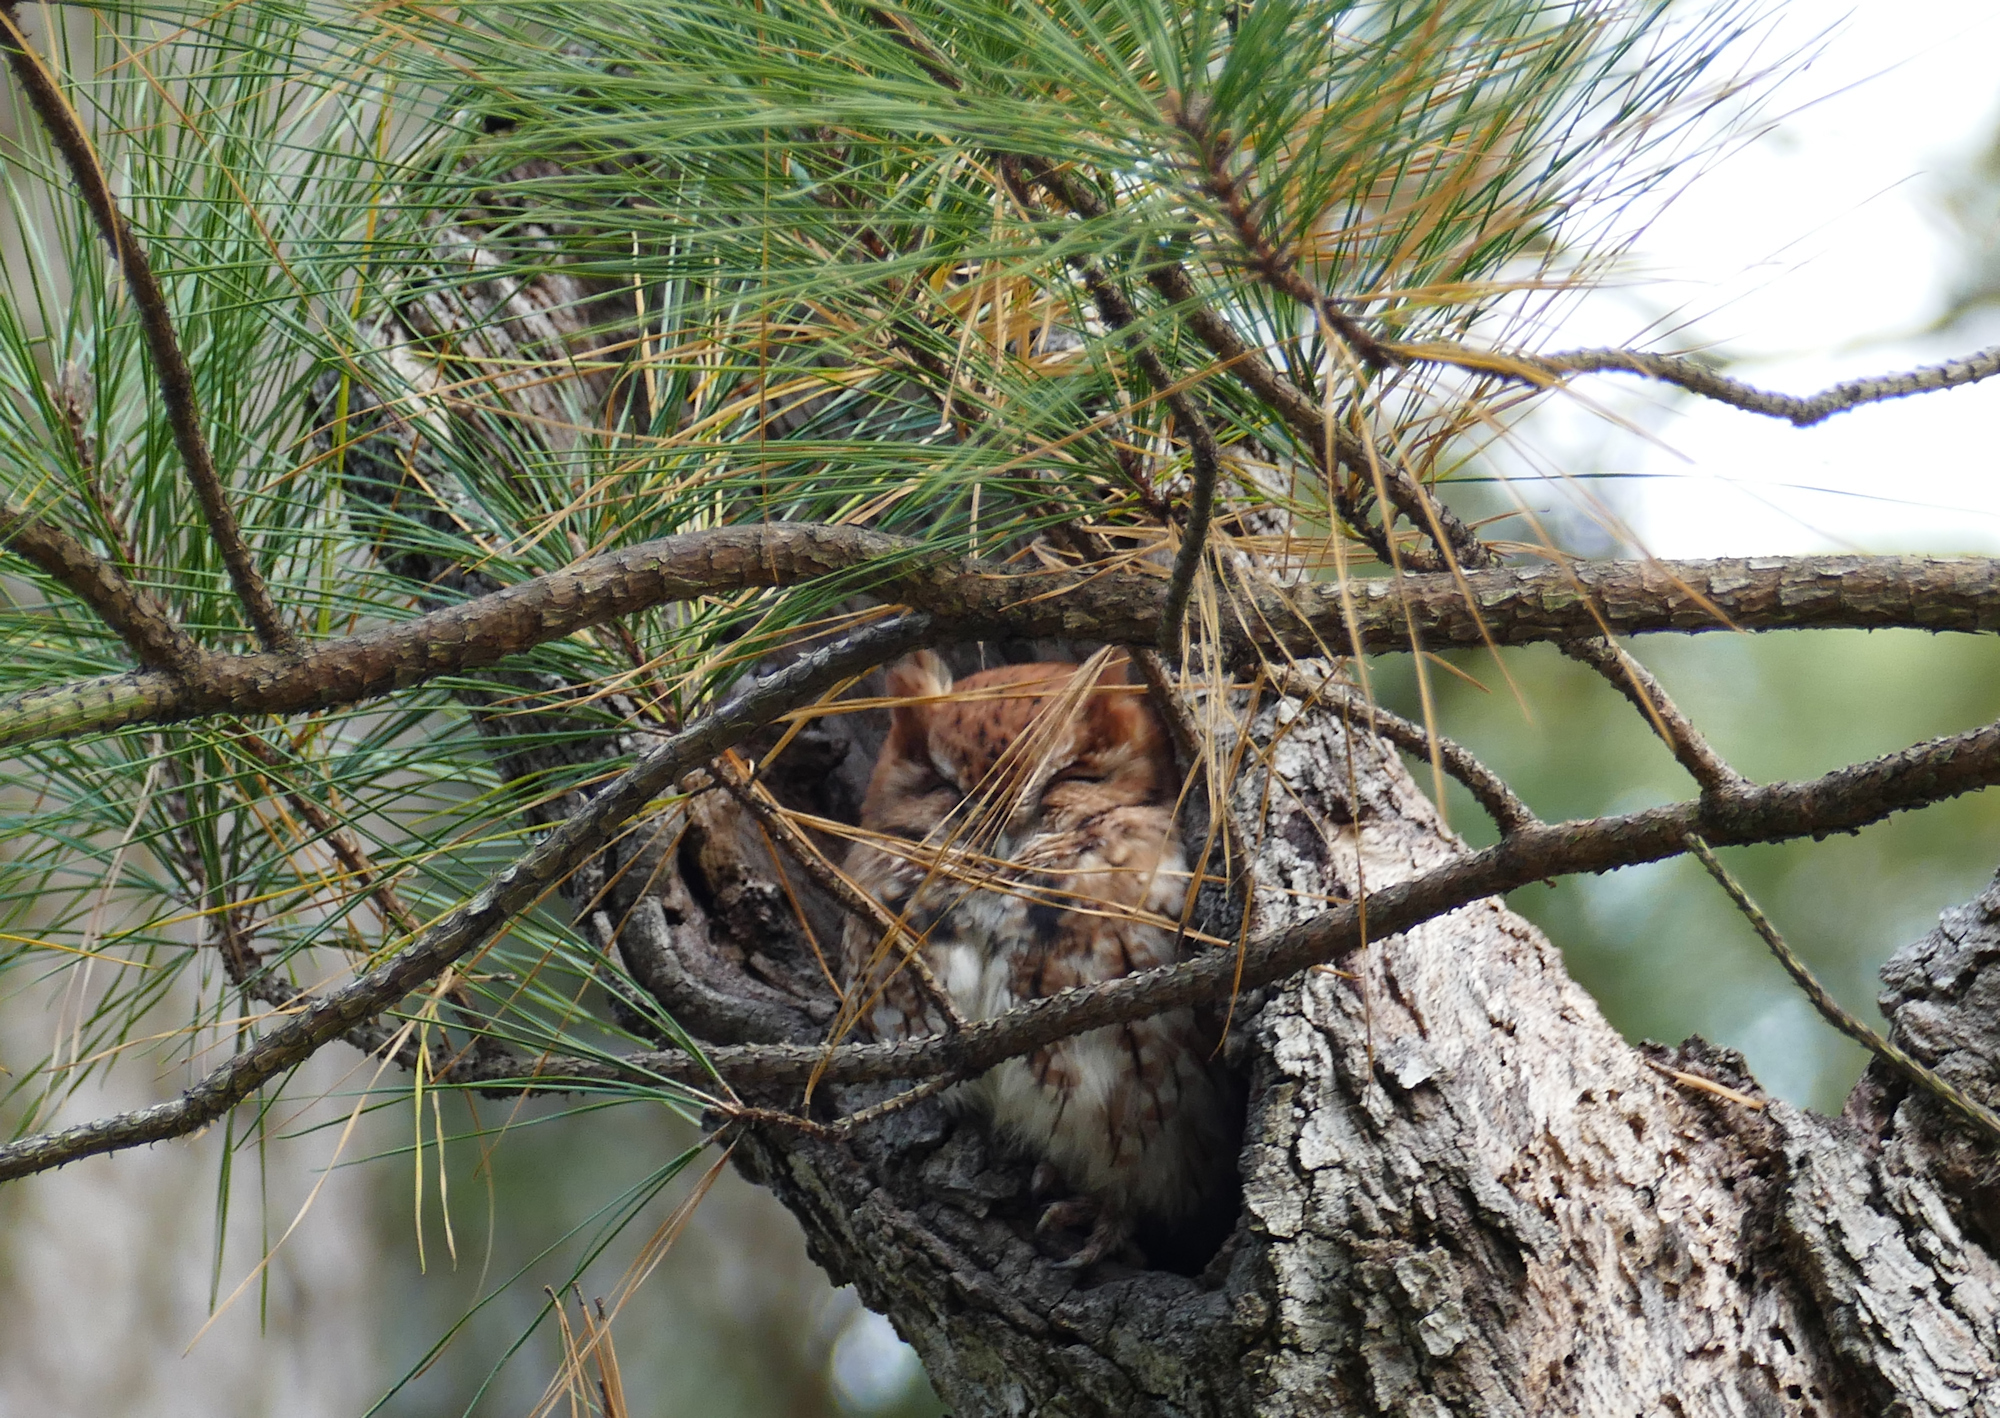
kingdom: Animalia
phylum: Chordata
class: Aves
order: Strigiformes
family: Strigidae
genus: Megascops
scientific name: Megascops asio
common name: Eastern screech-owl
